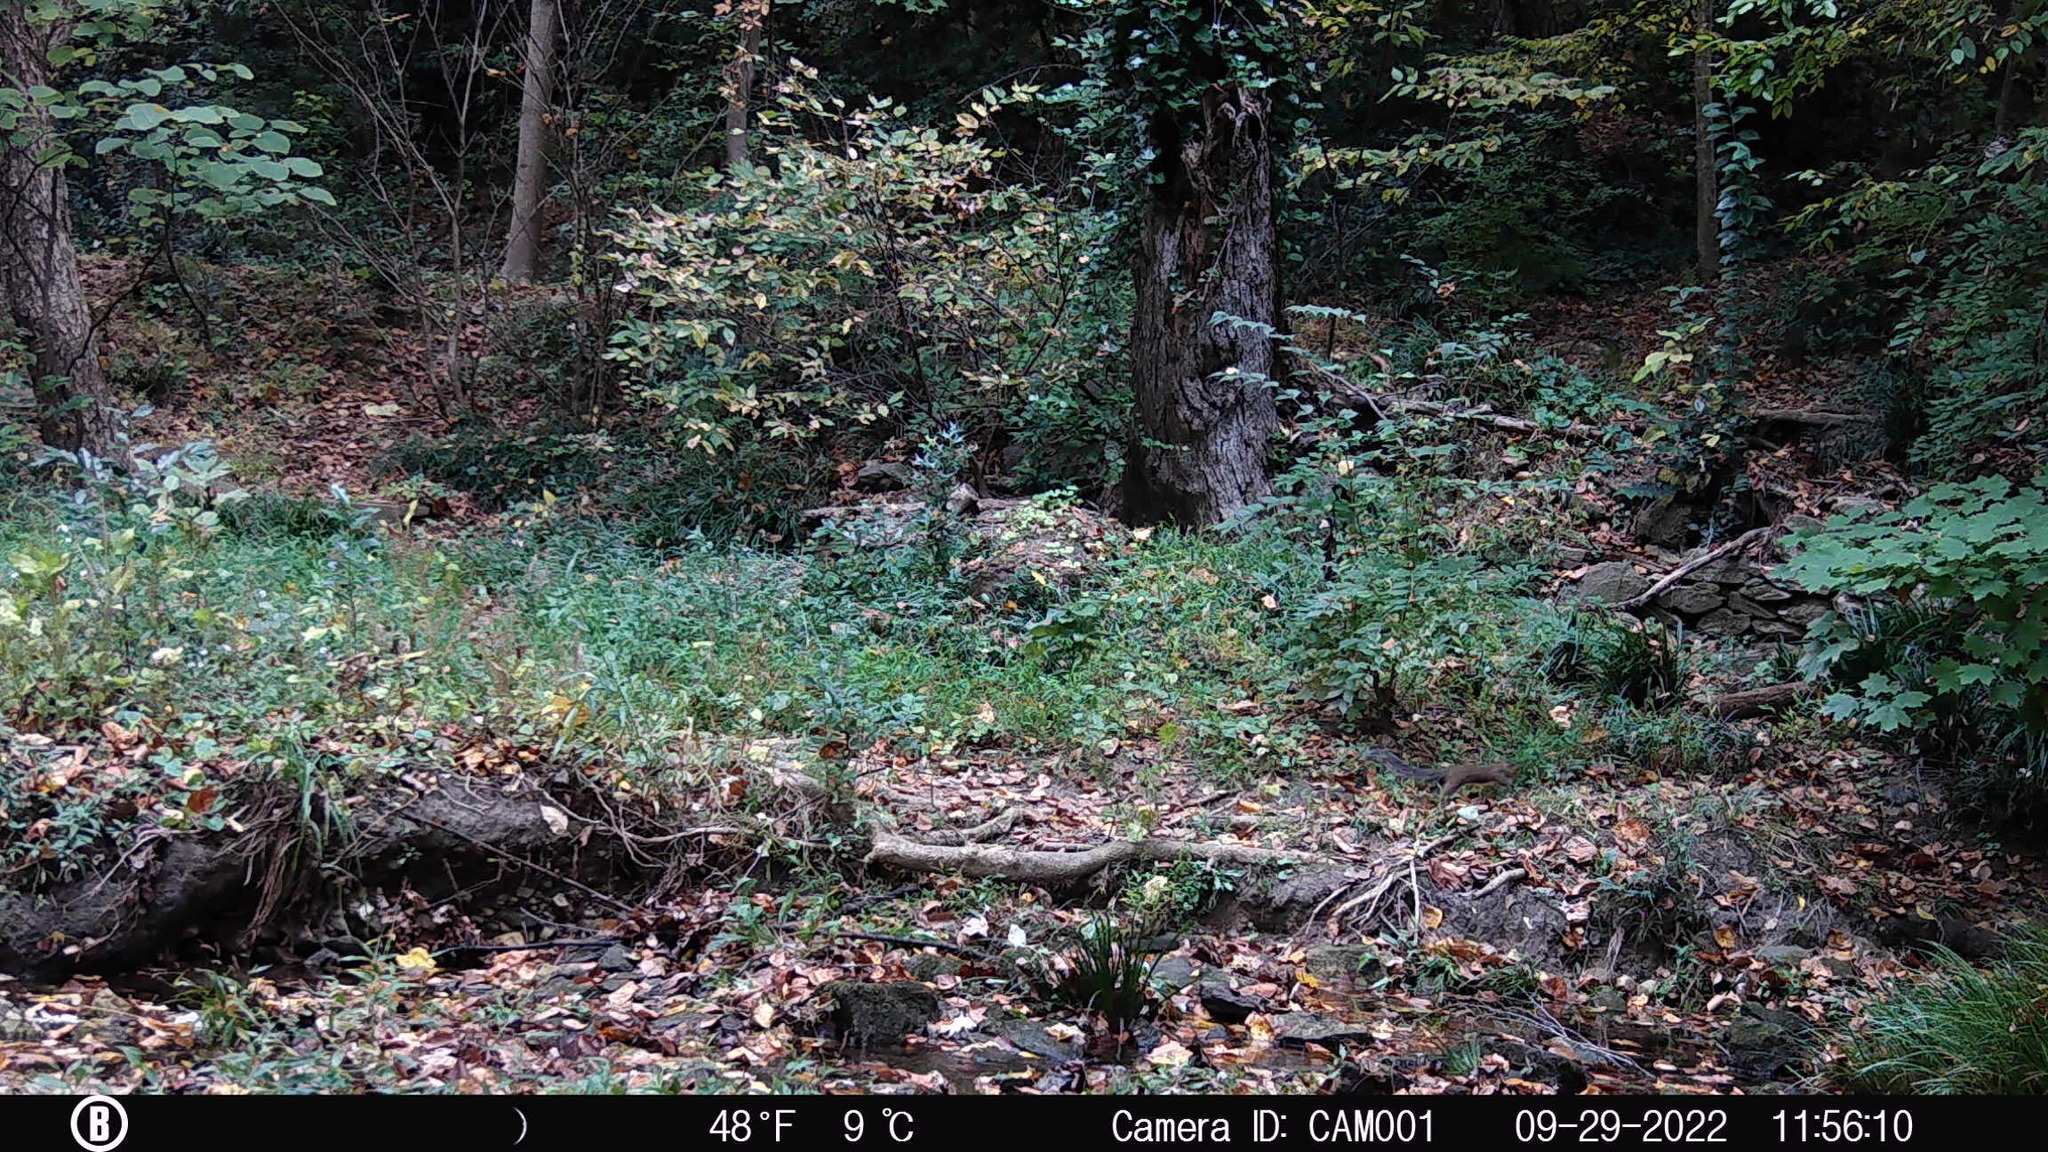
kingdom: Animalia
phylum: Chordata
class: Mammalia
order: Rodentia
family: Sciuridae
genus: Sciurus
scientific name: Sciurus carolinensis
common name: Eastern gray squirrel
